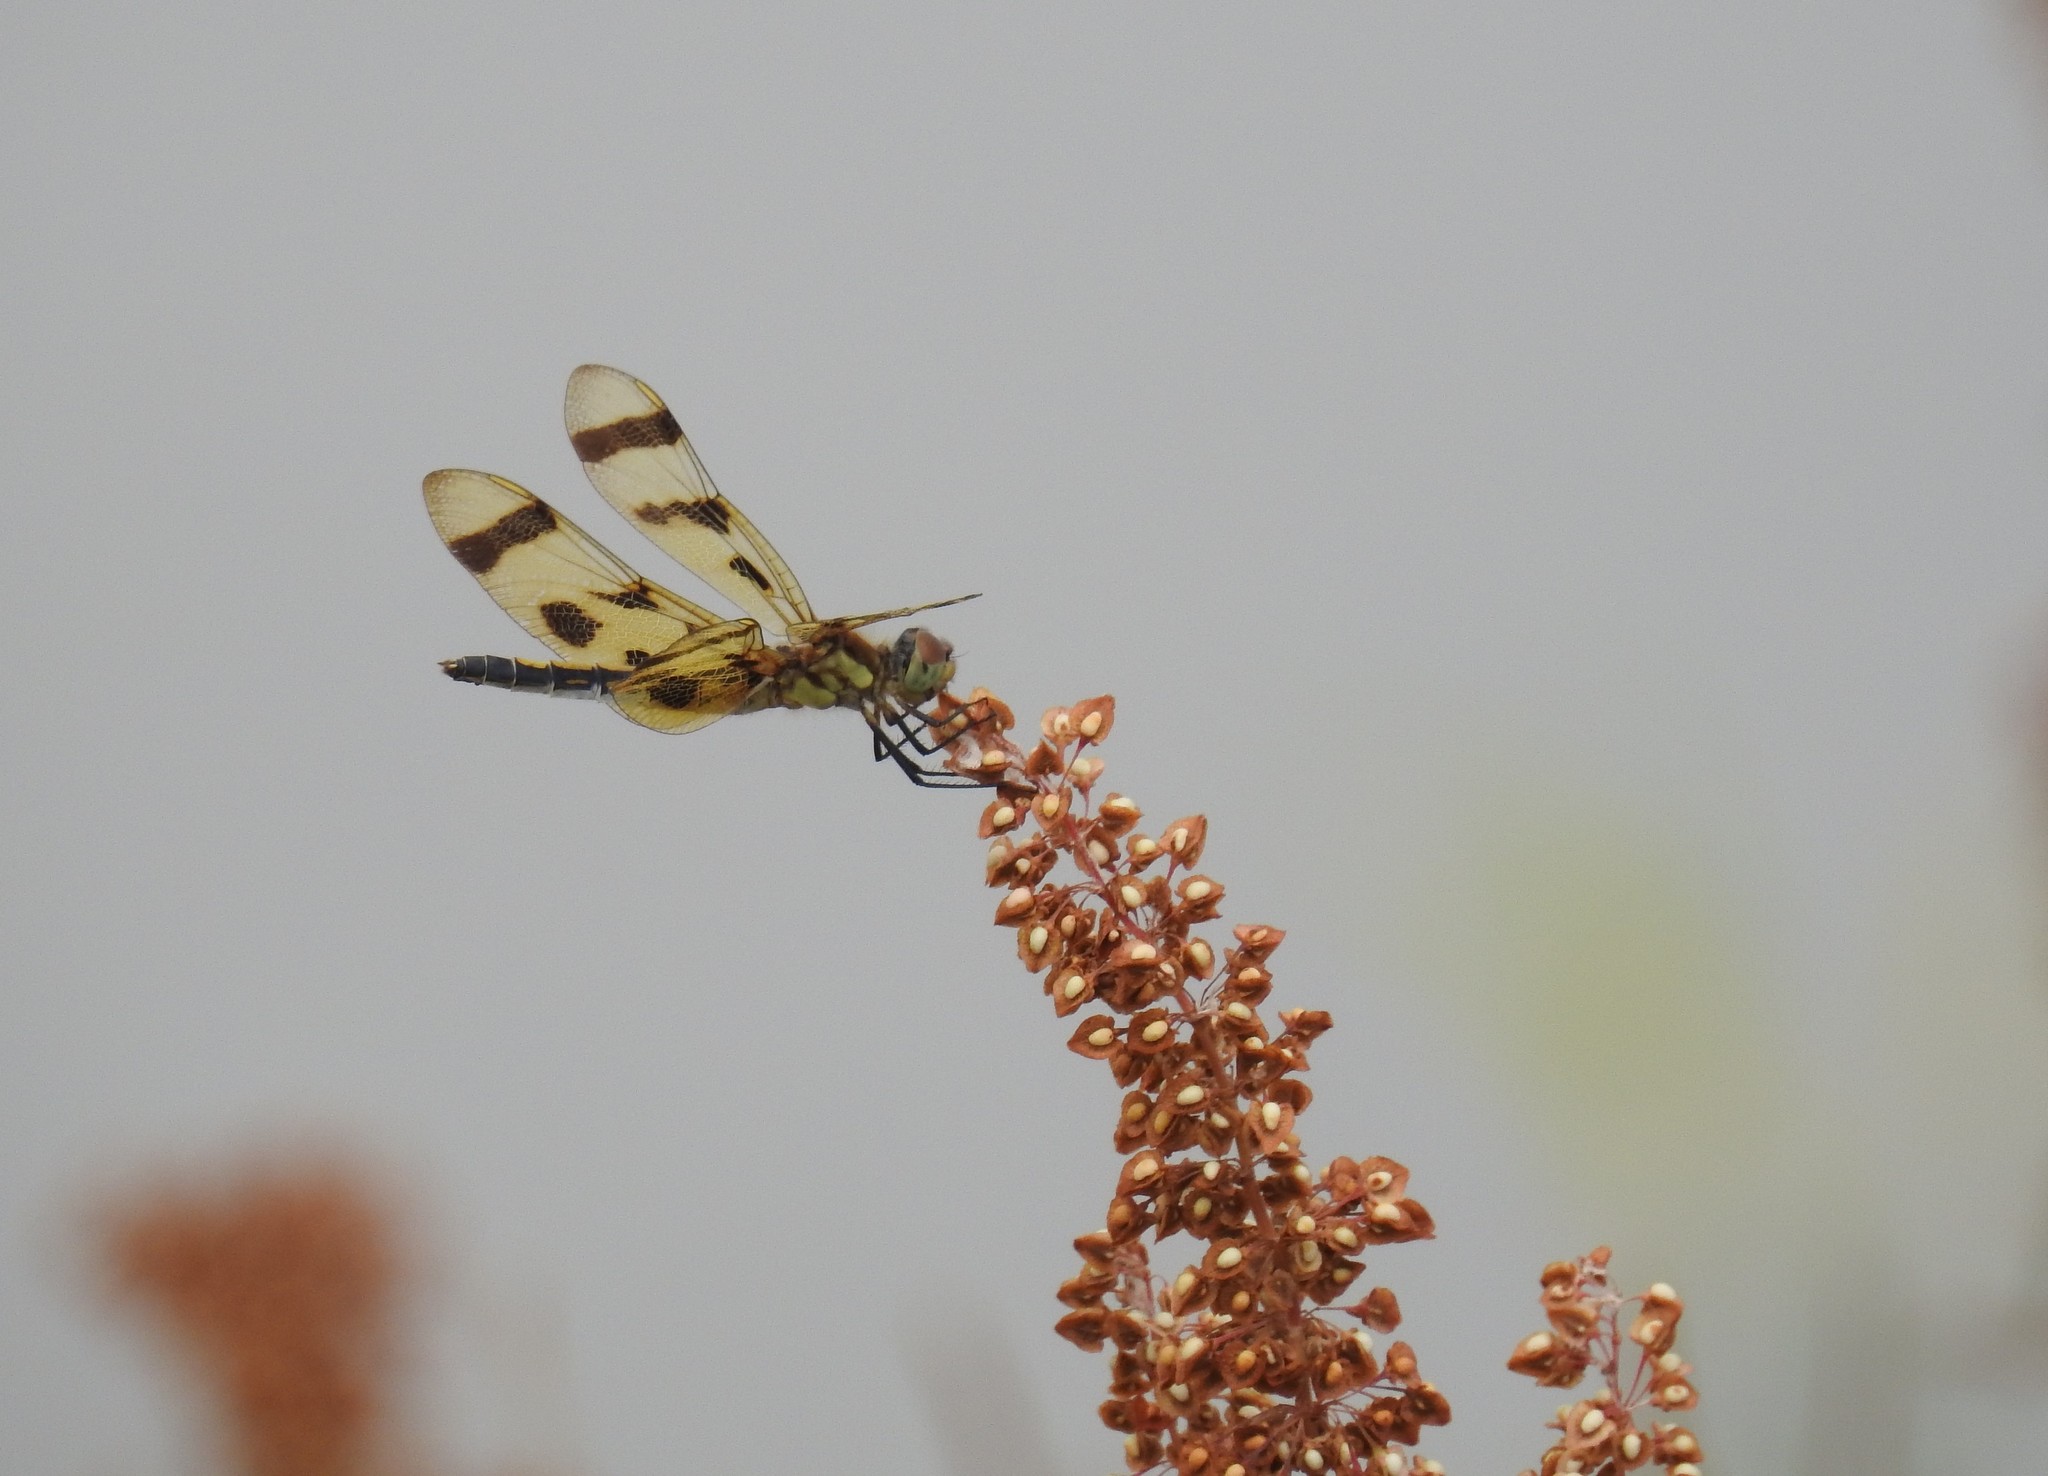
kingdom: Animalia
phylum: Arthropoda
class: Insecta
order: Odonata
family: Libellulidae
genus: Celithemis
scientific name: Celithemis eponina
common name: Halloween pennant
